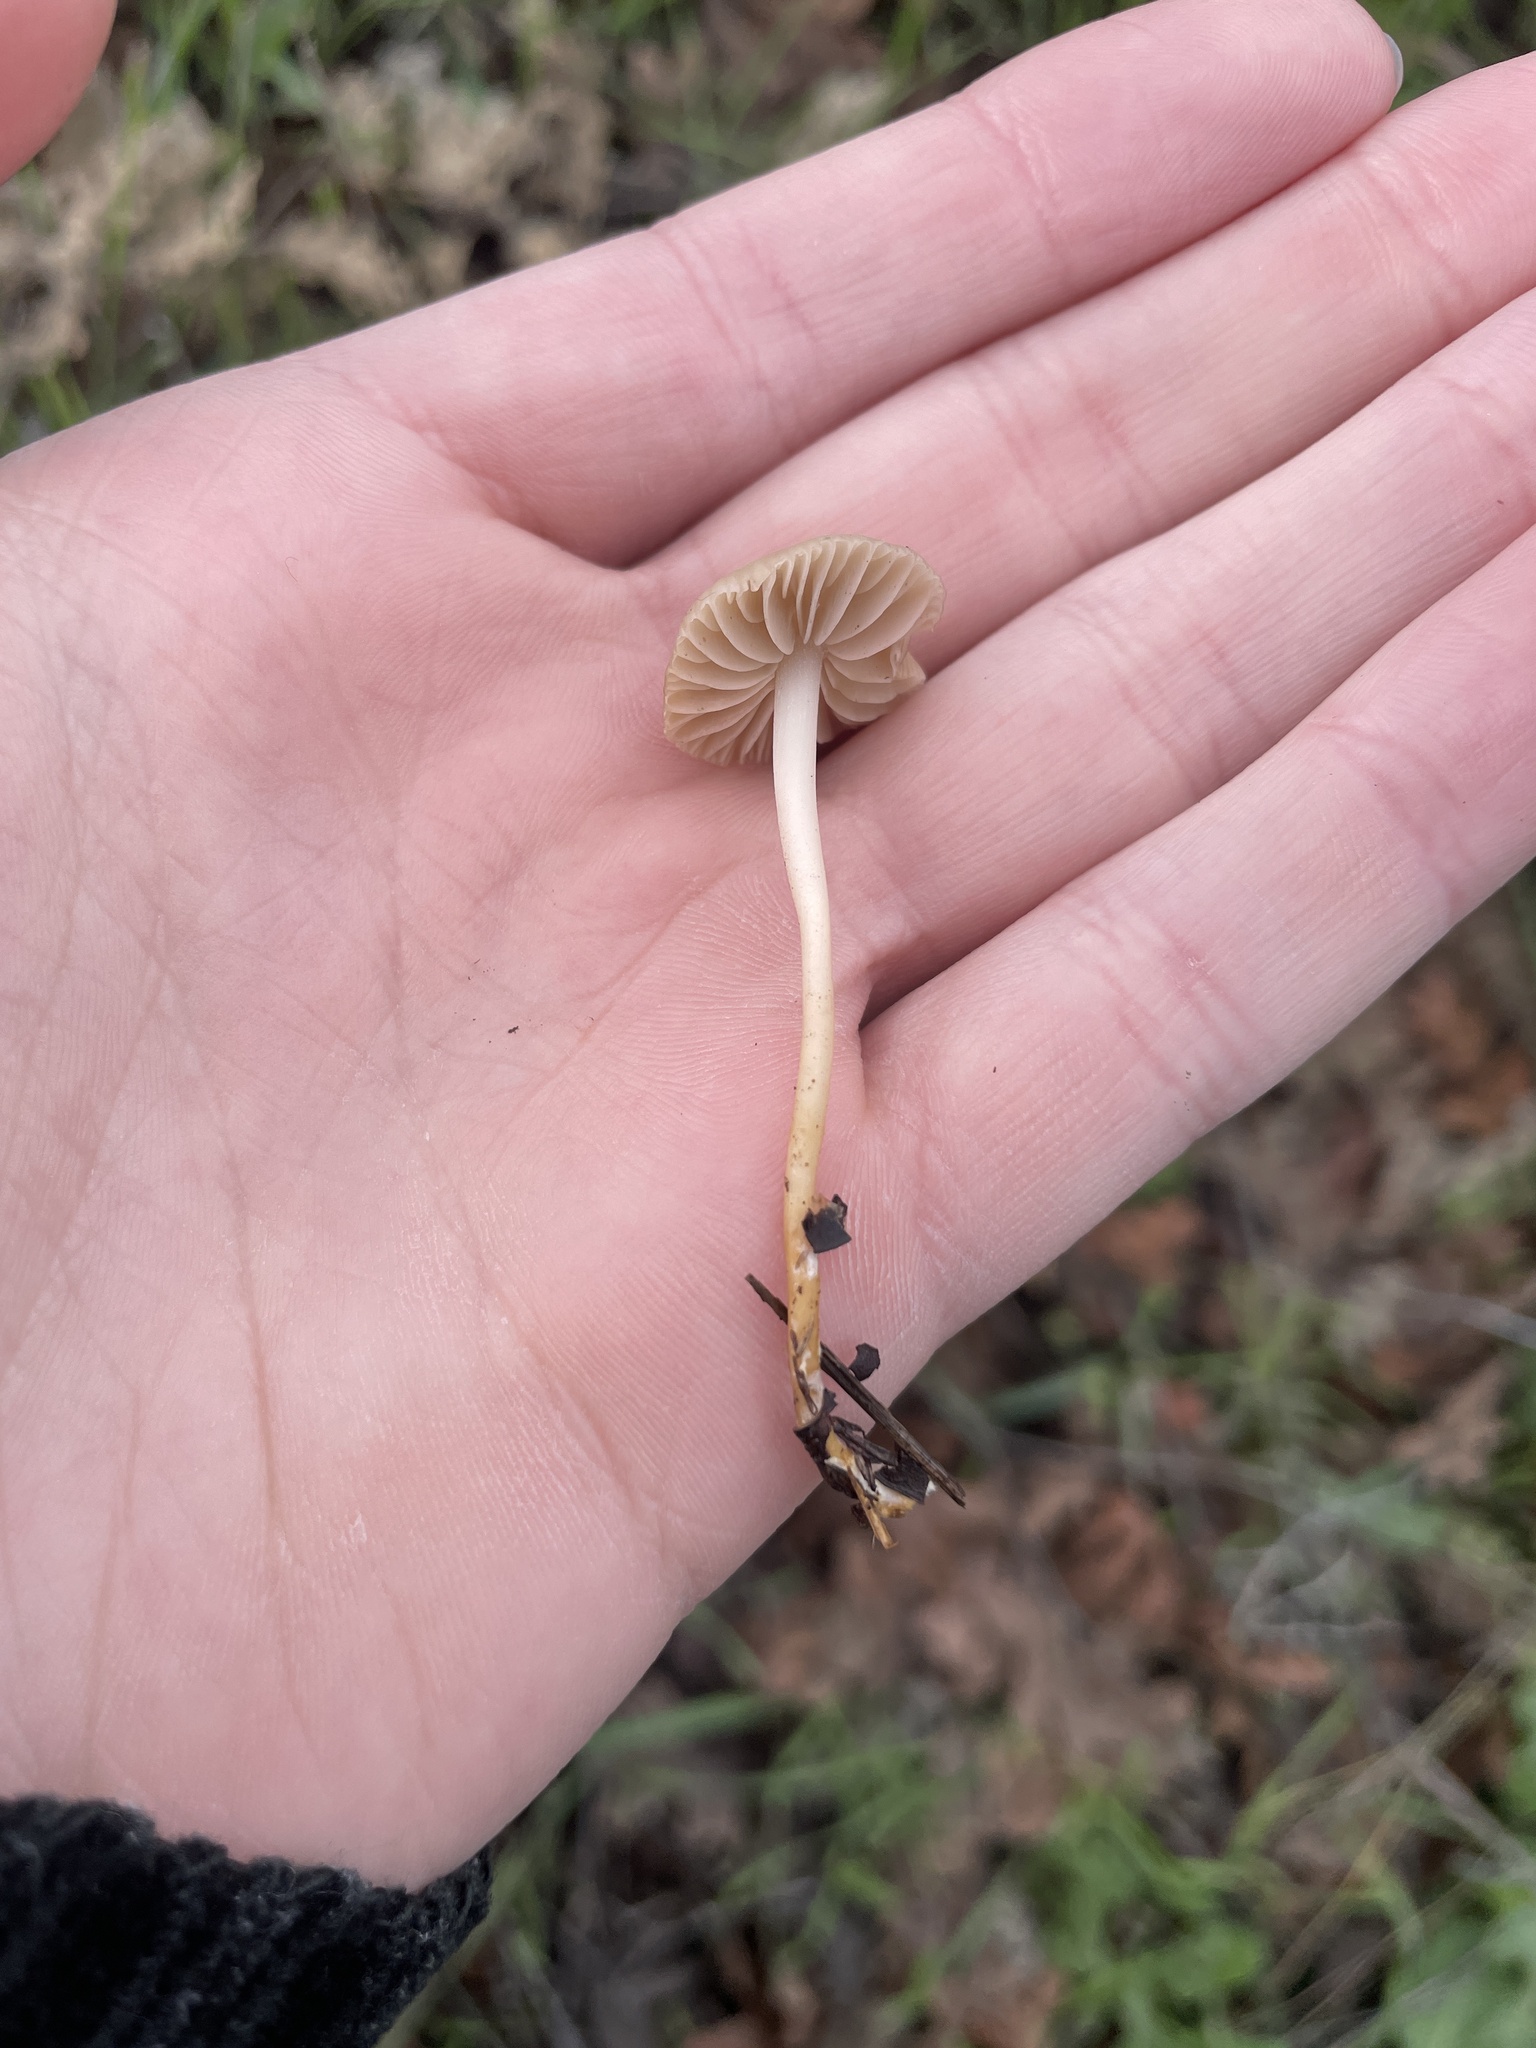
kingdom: Fungi
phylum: Basidiomycota
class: Agaricomycetes
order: Agaricales
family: Marasmiaceae
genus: Marasmius
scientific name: Marasmius albogriseus
